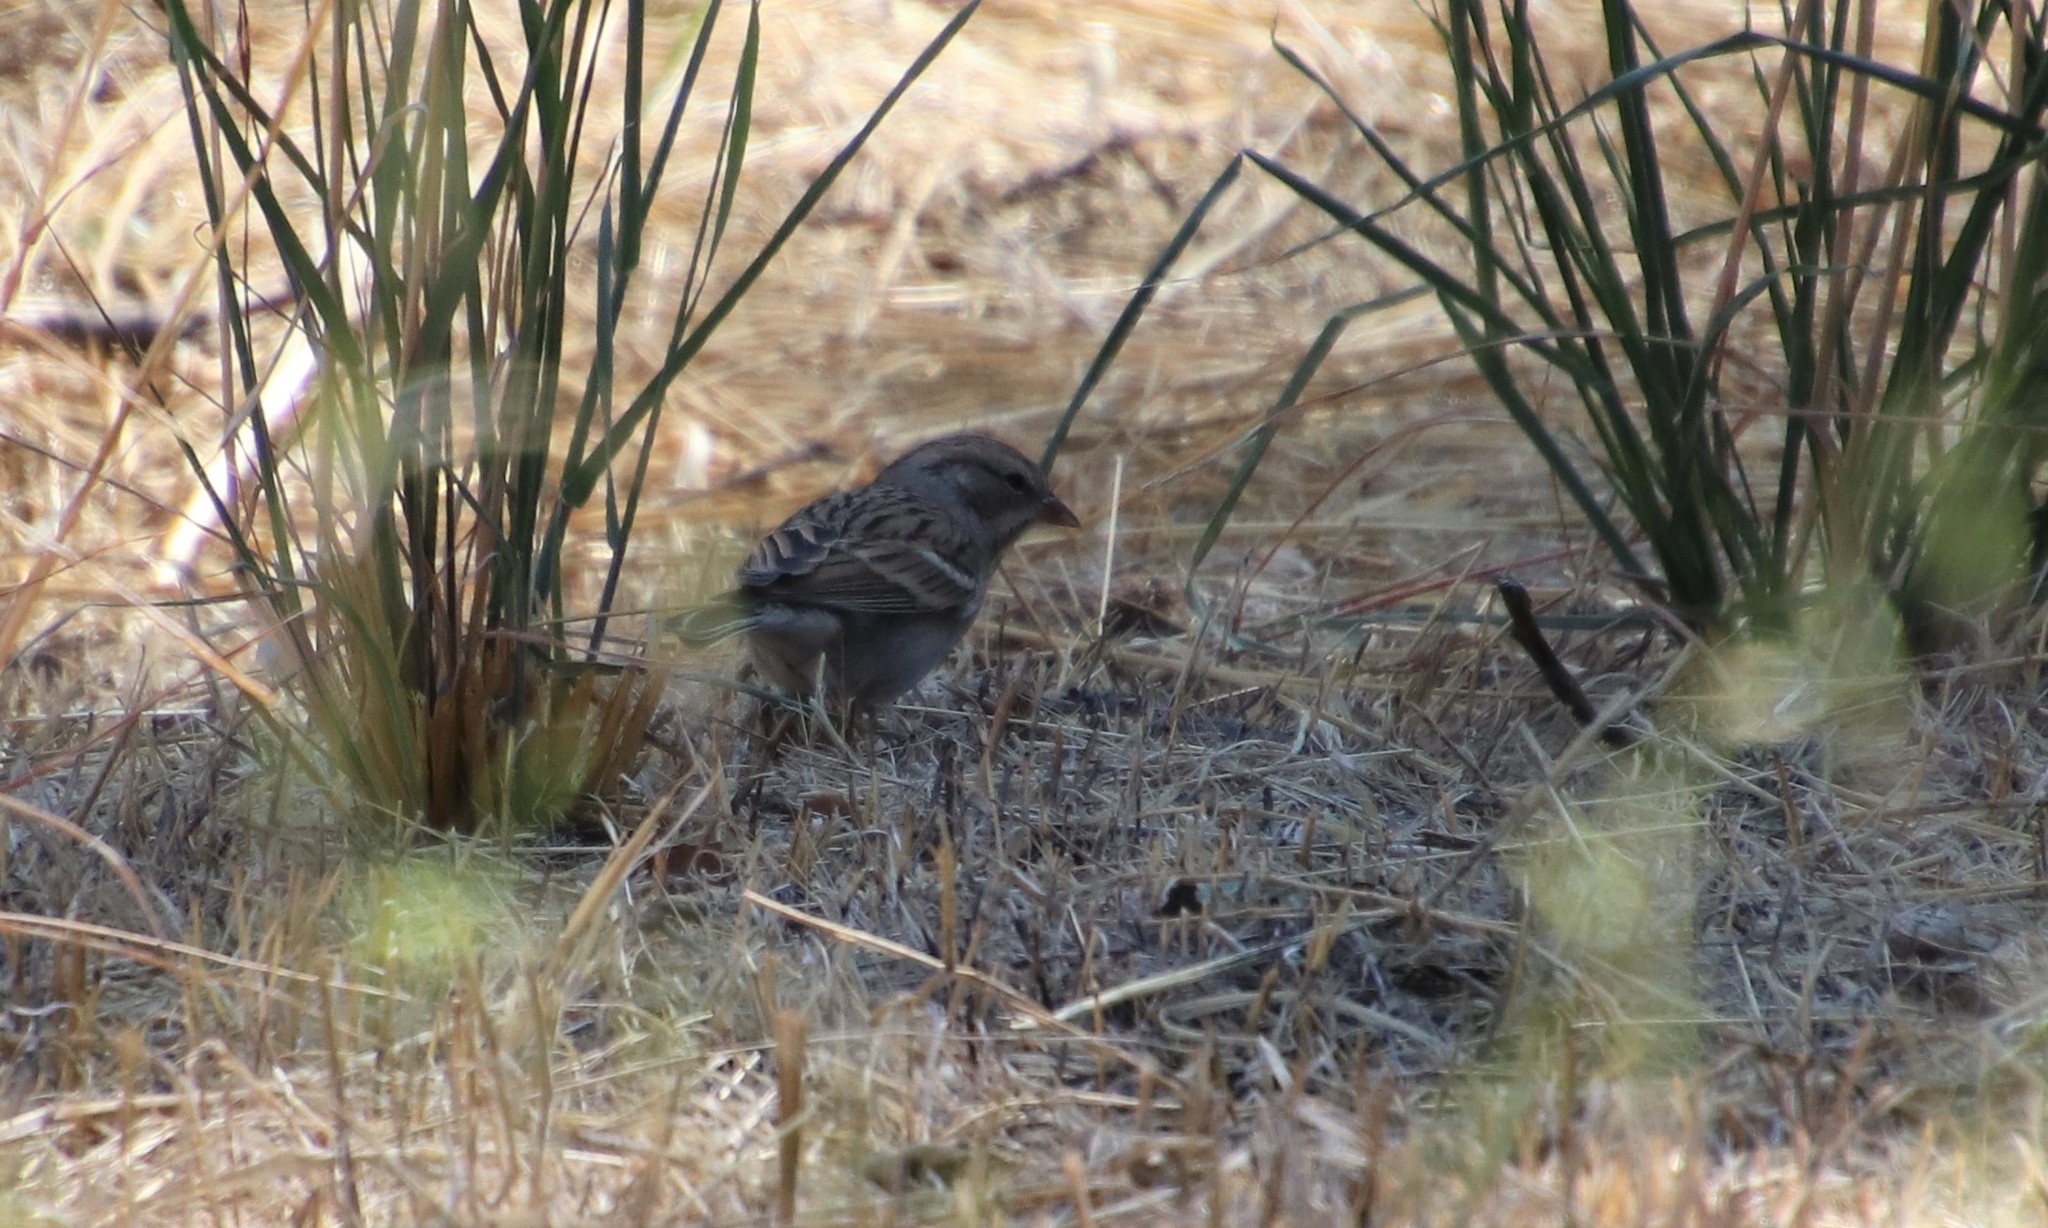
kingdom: Animalia
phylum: Chordata
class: Aves
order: Passeriformes
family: Passerellidae
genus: Spizella
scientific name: Spizella passerina
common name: Chipping sparrow
